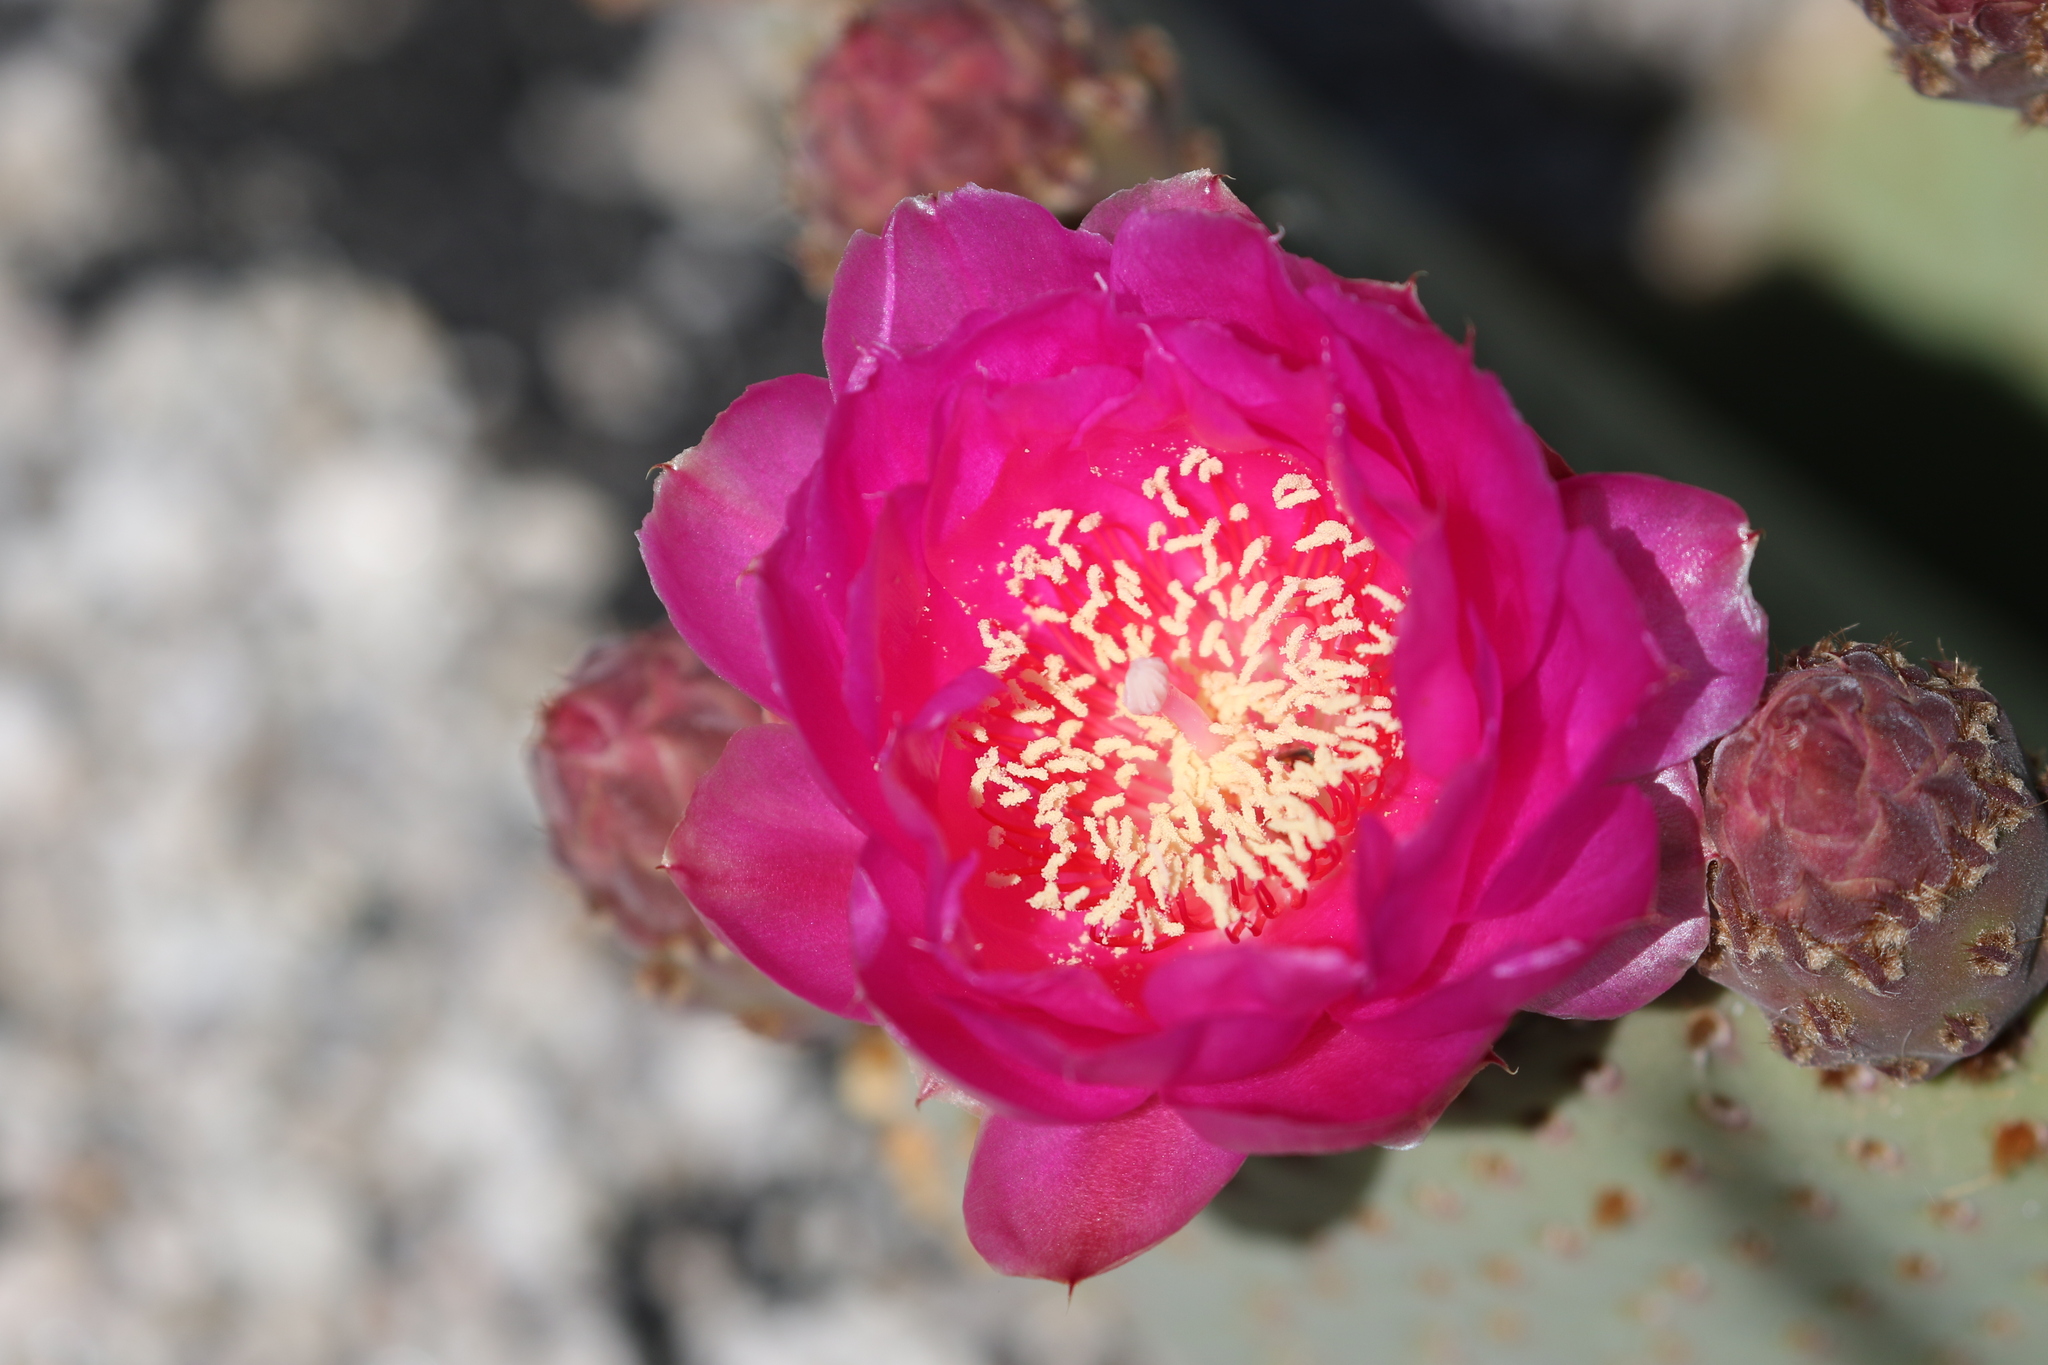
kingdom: Plantae
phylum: Tracheophyta
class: Magnoliopsida
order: Caryophyllales
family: Cactaceae
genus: Opuntia
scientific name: Opuntia basilaris
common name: Beavertail prickly-pear
